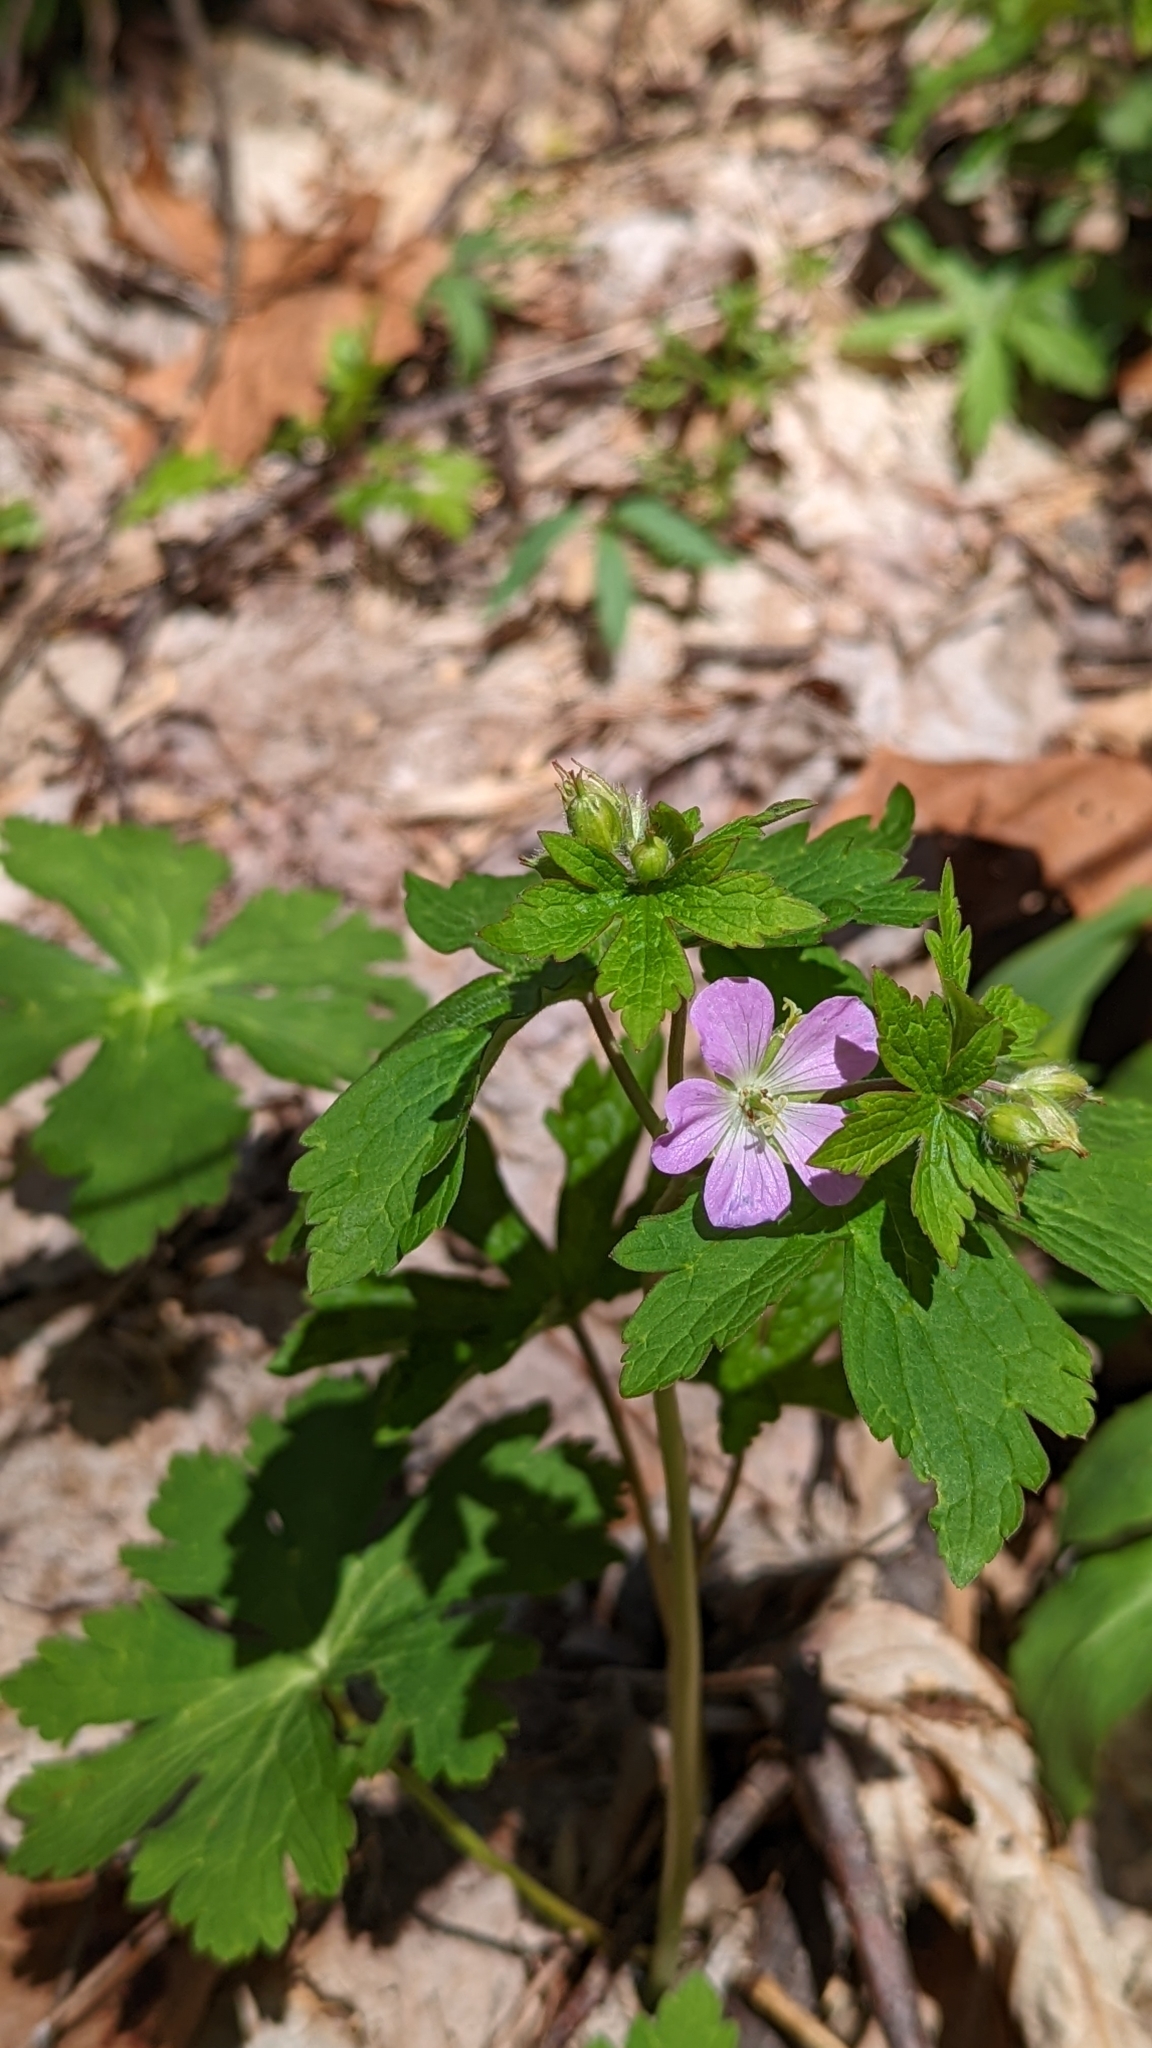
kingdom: Plantae
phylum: Tracheophyta
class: Magnoliopsida
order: Geraniales
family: Geraniaceae
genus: Geranium
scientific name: Geranium maculatum
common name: Spotted geranium
